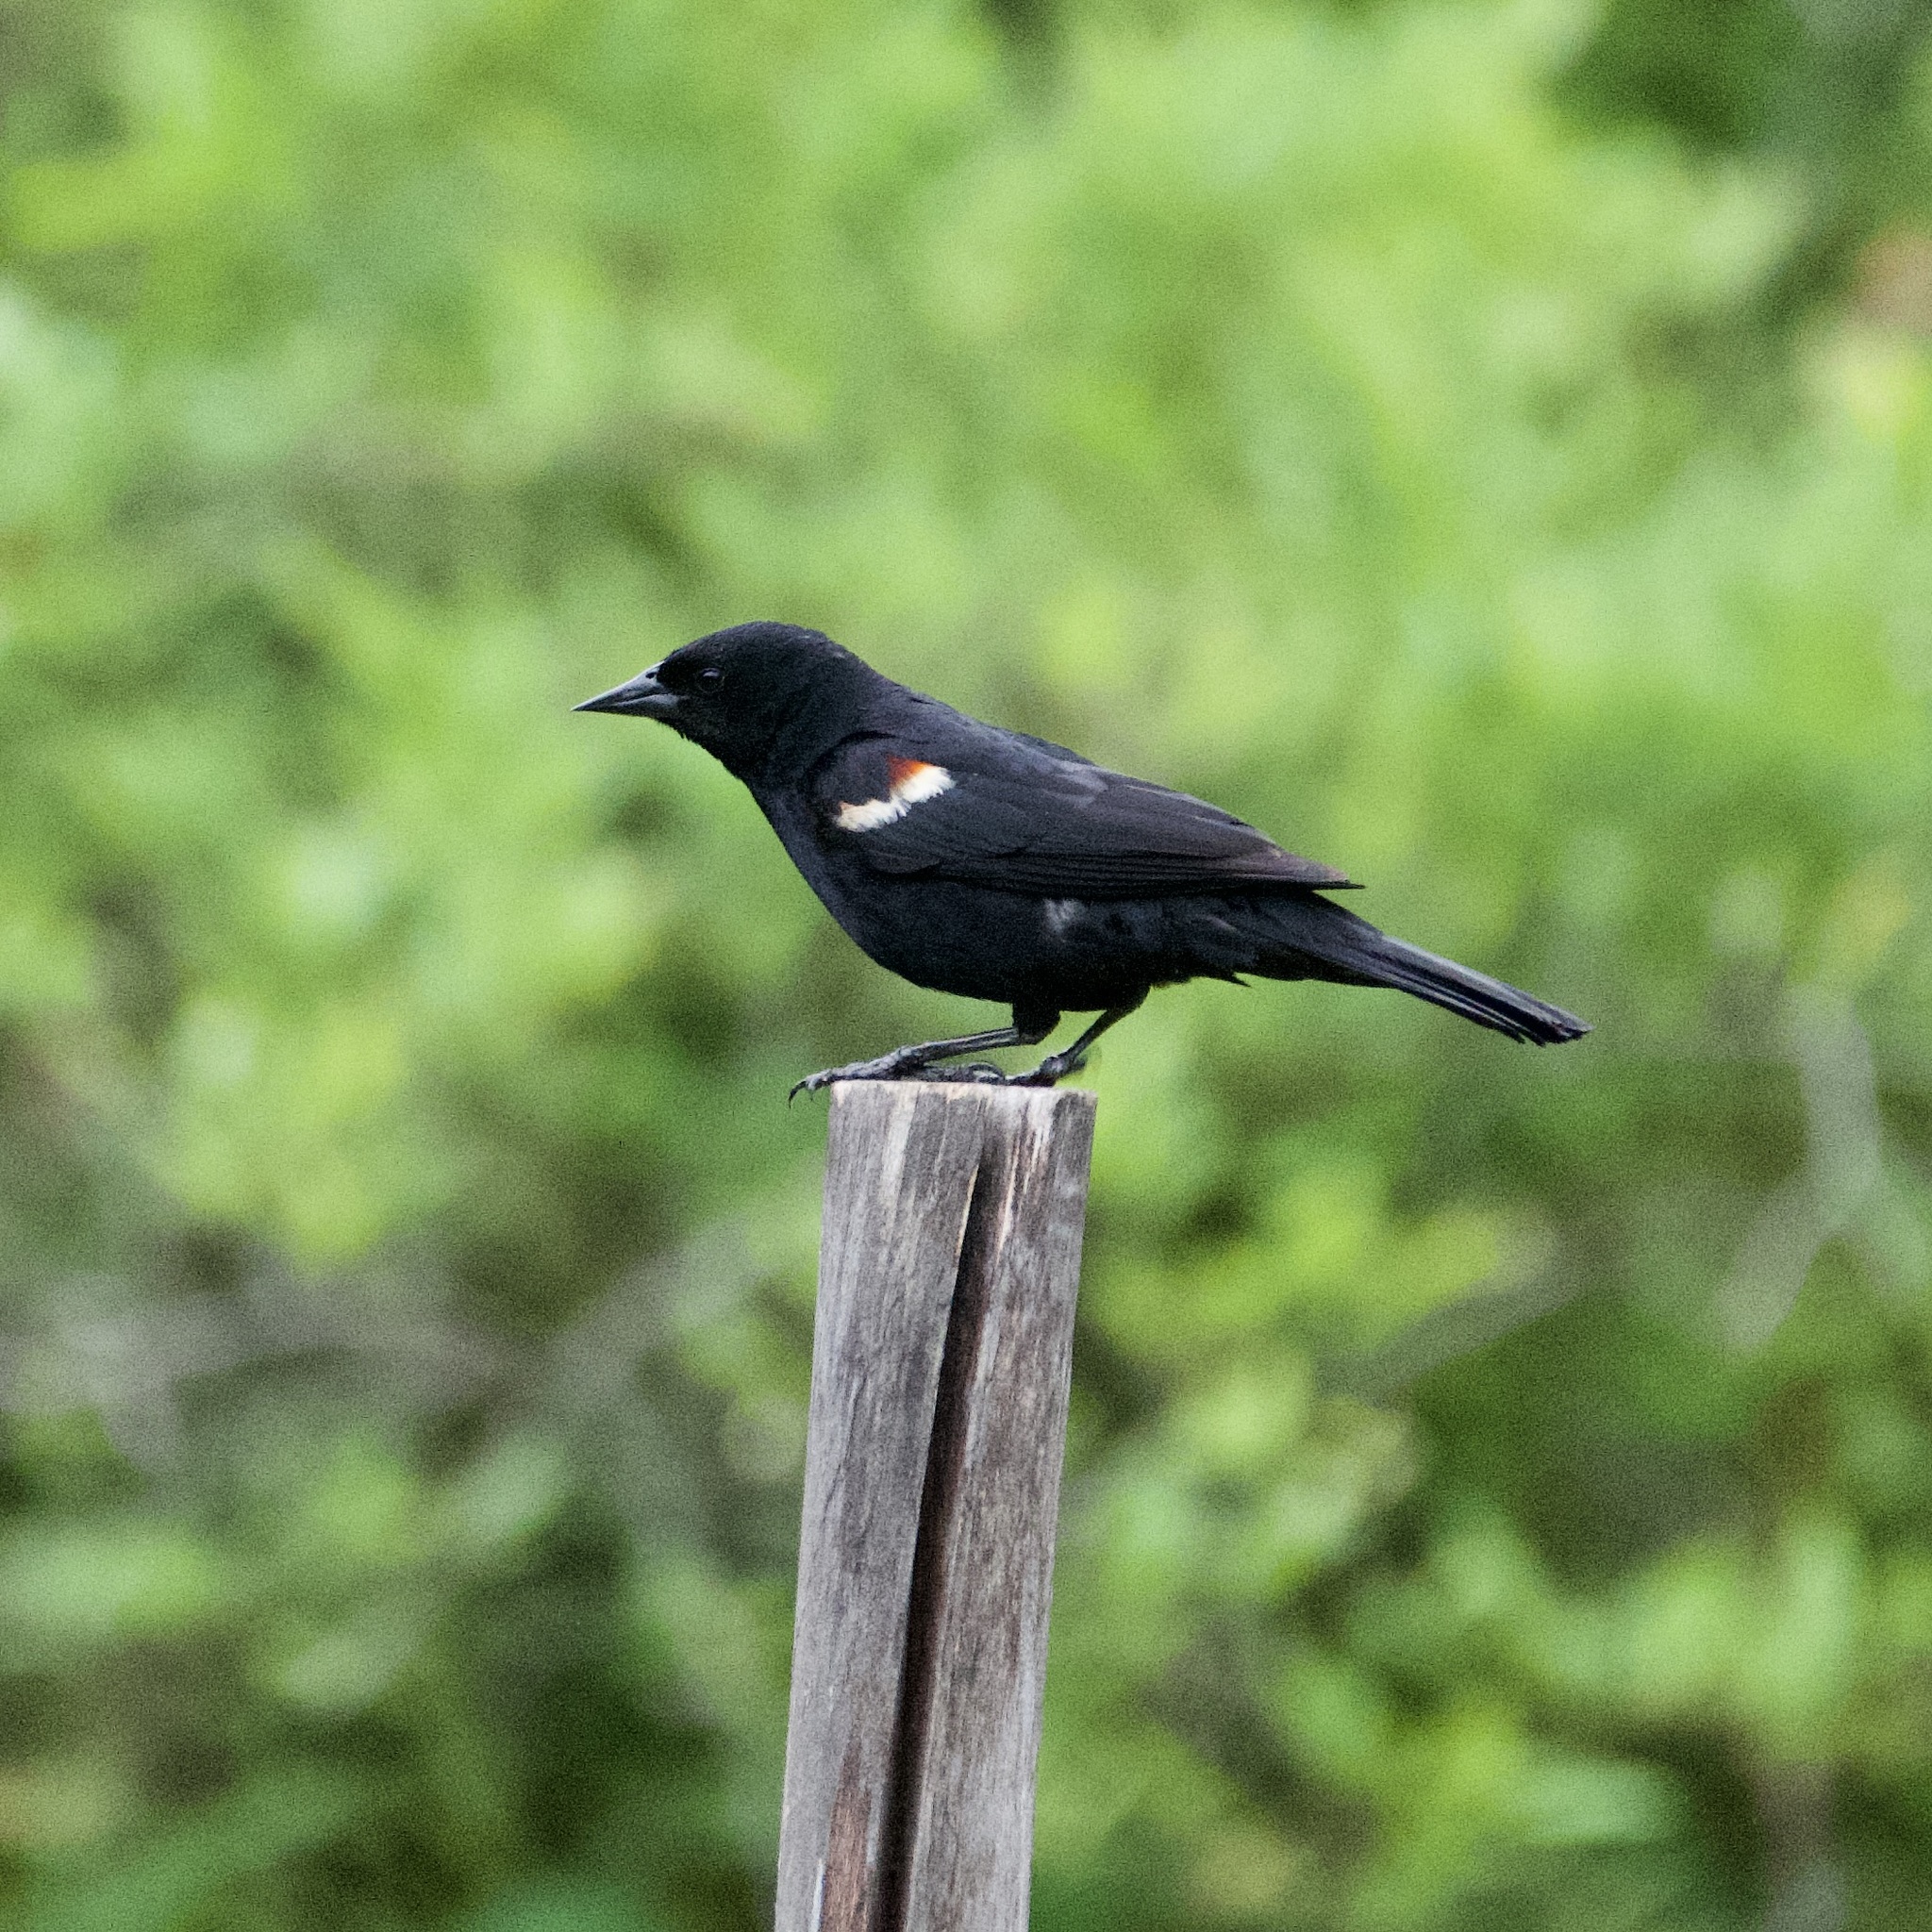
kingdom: Animalia
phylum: Chordata
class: Aves
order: Passeriformes
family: Icteridae
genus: Agelaius
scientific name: Agelaius phoeniceus
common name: Red-winged blackbird
